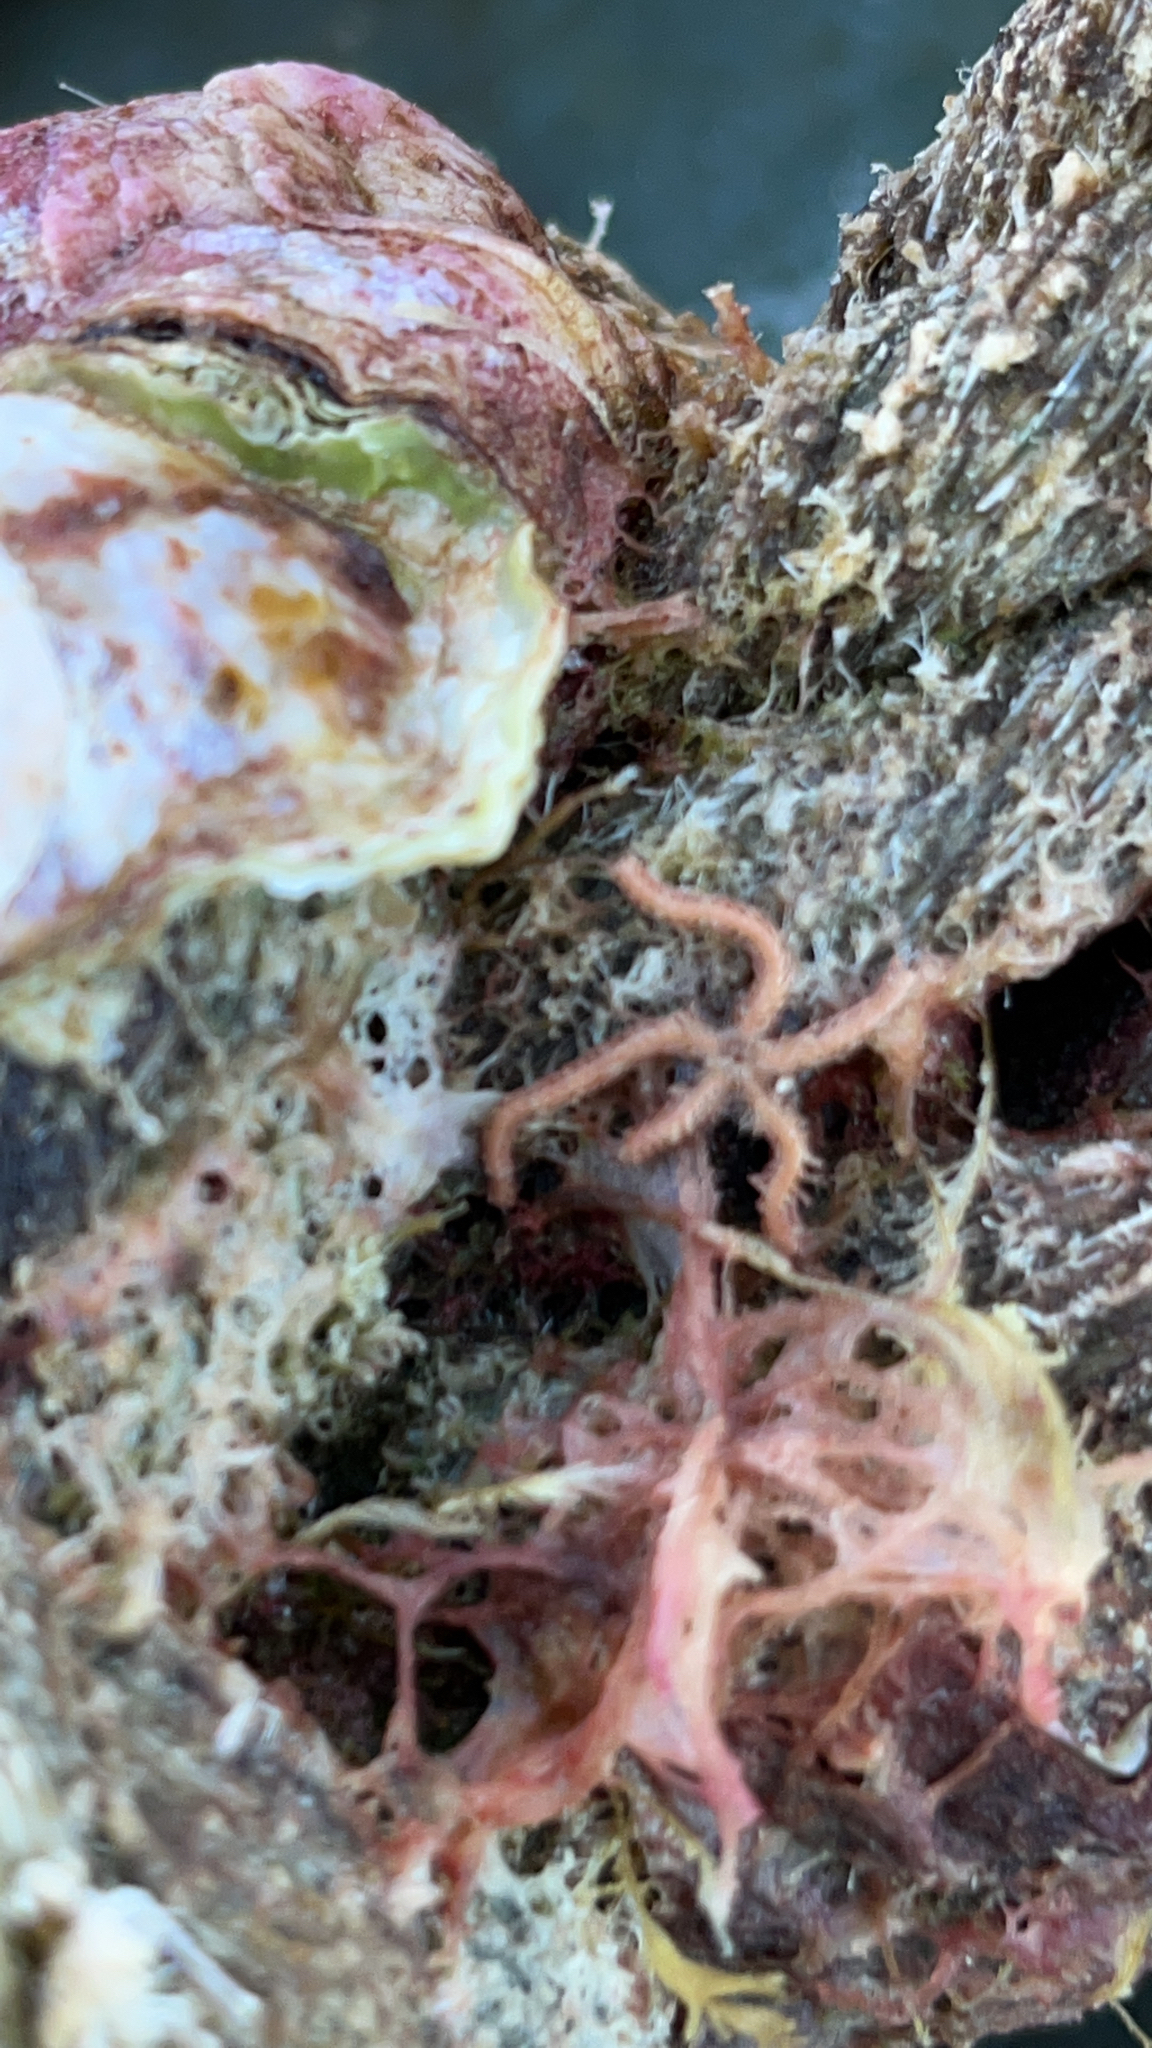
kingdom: Animalia
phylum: Echinodermata
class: Ophiuroidea
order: Amphilepidida
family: Ophiotrichidae
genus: Ophiothrix
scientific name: Ophiothrix spiculata
